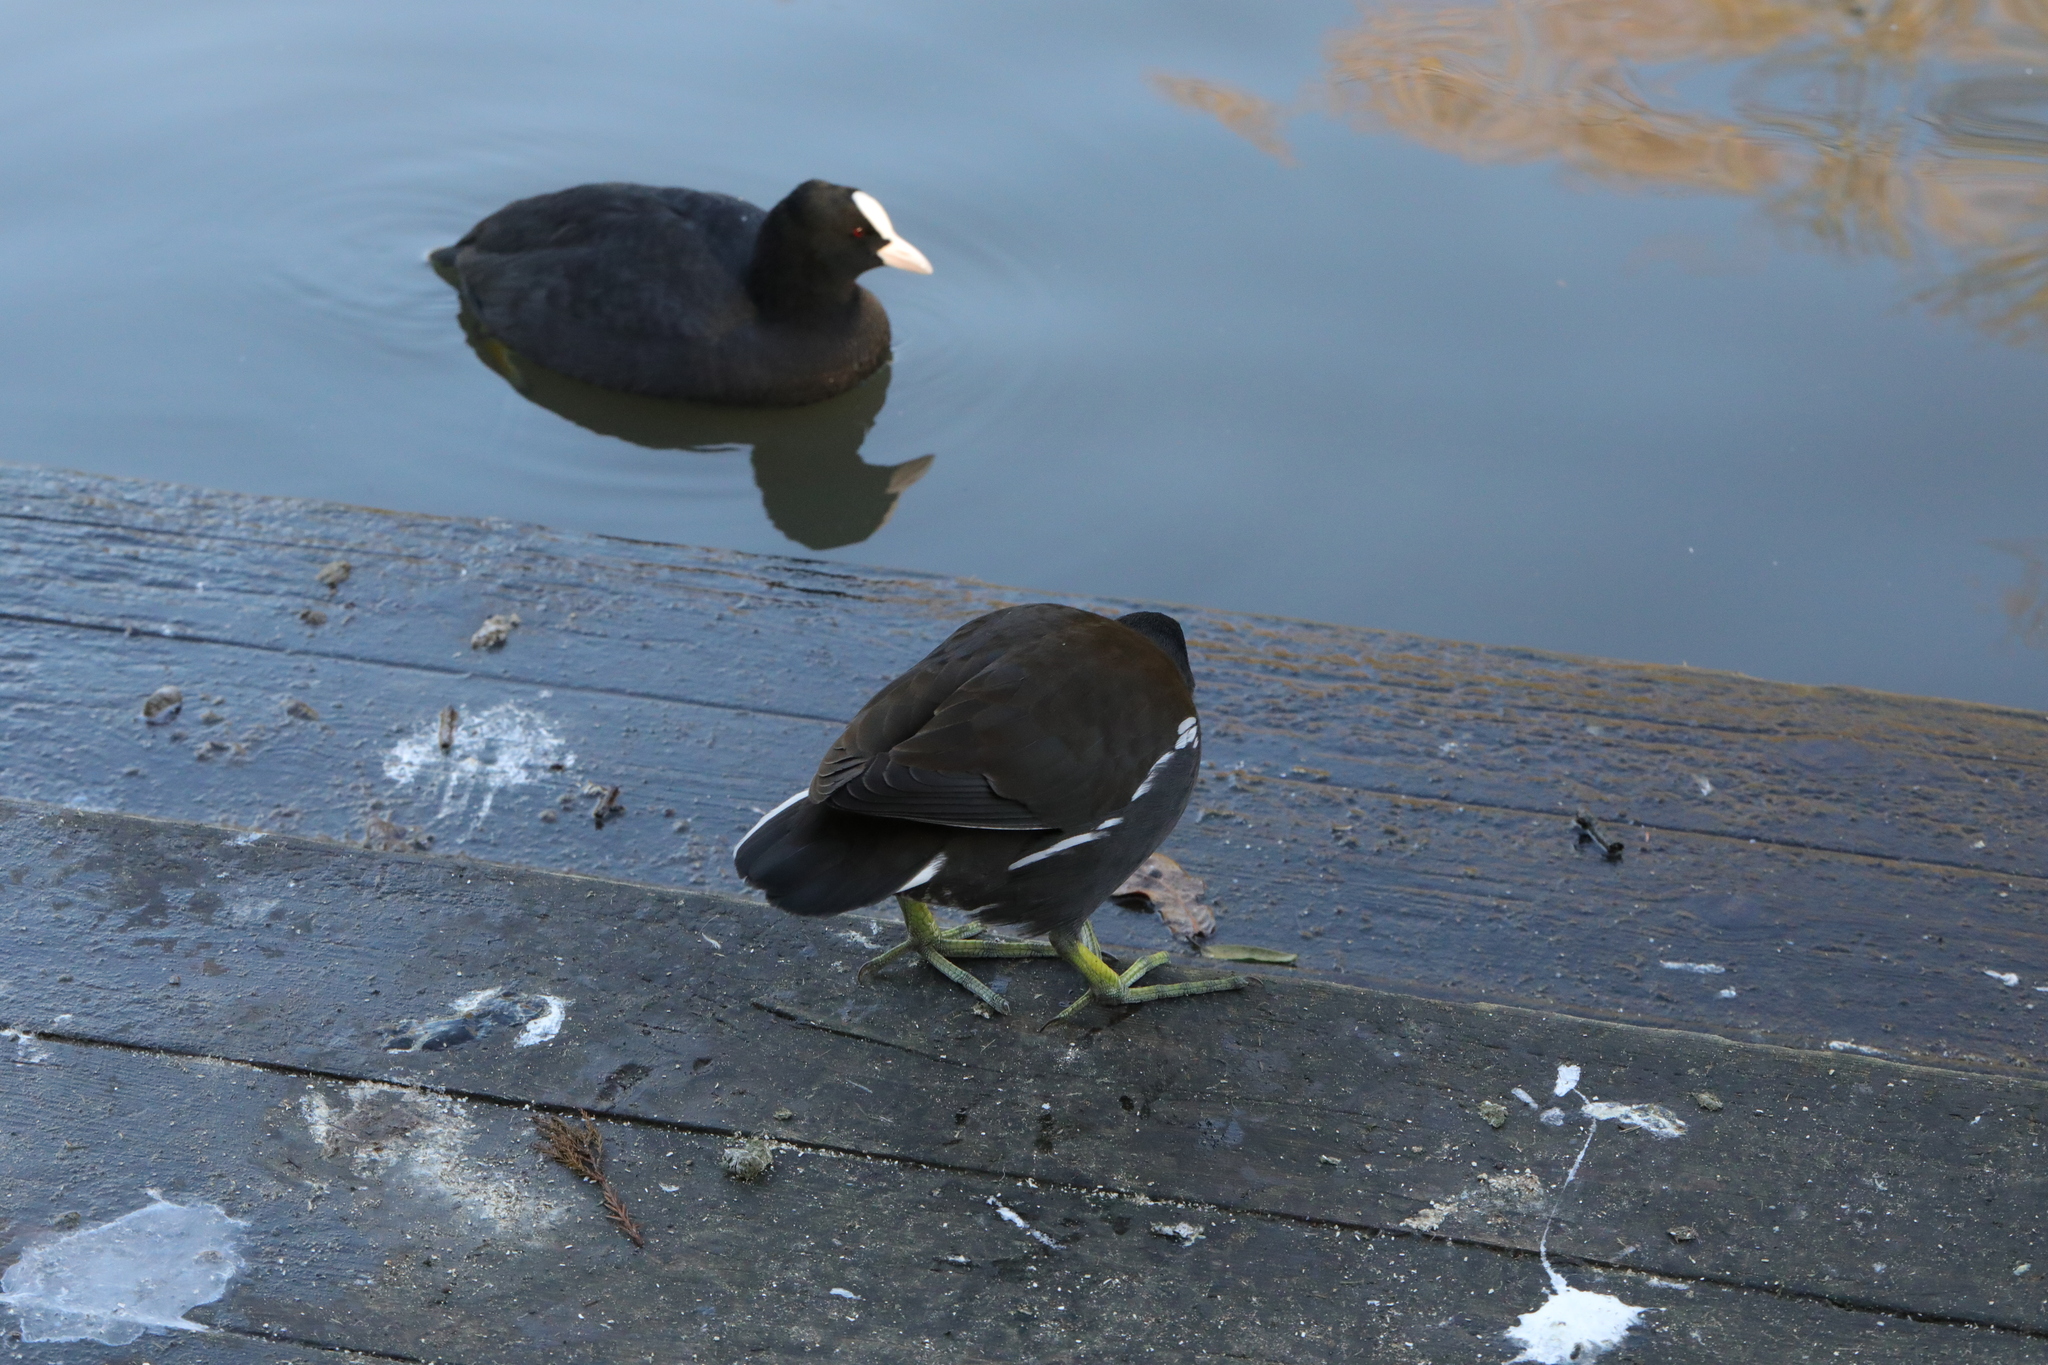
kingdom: Animalia
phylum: Chordata
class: Aves
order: Gruiformes
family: Rallidae
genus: Fulica
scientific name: Fulica atra
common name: Eurasian coot
